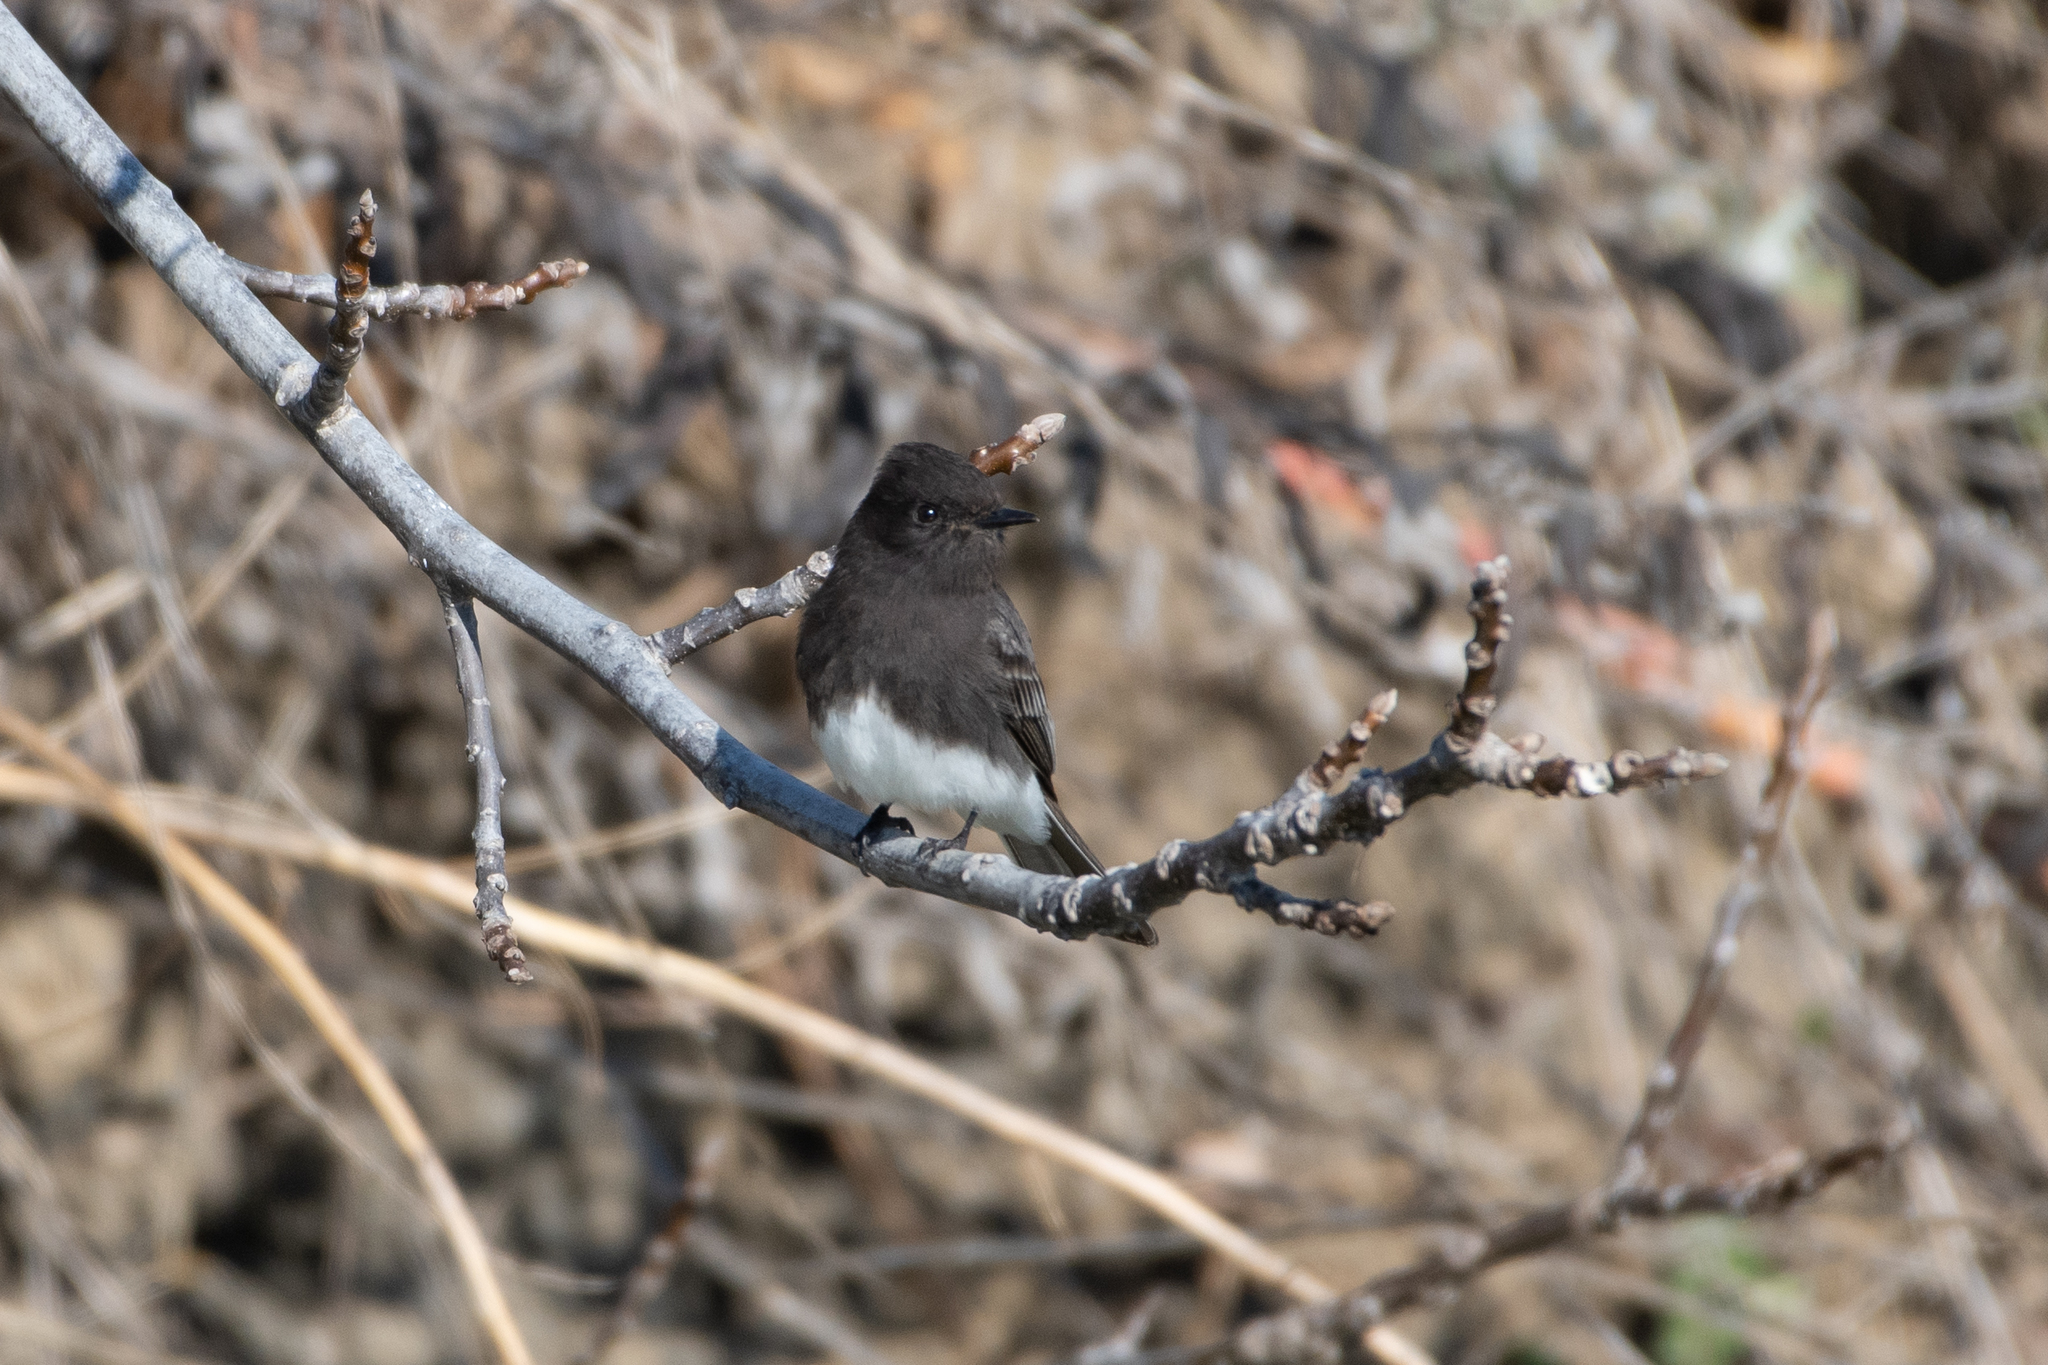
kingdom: Animalia
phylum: Chordata
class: Aves
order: Passeriformes
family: Tyrannidae
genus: Sayornis
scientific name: Sayornis nigricans
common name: Black phoebe
